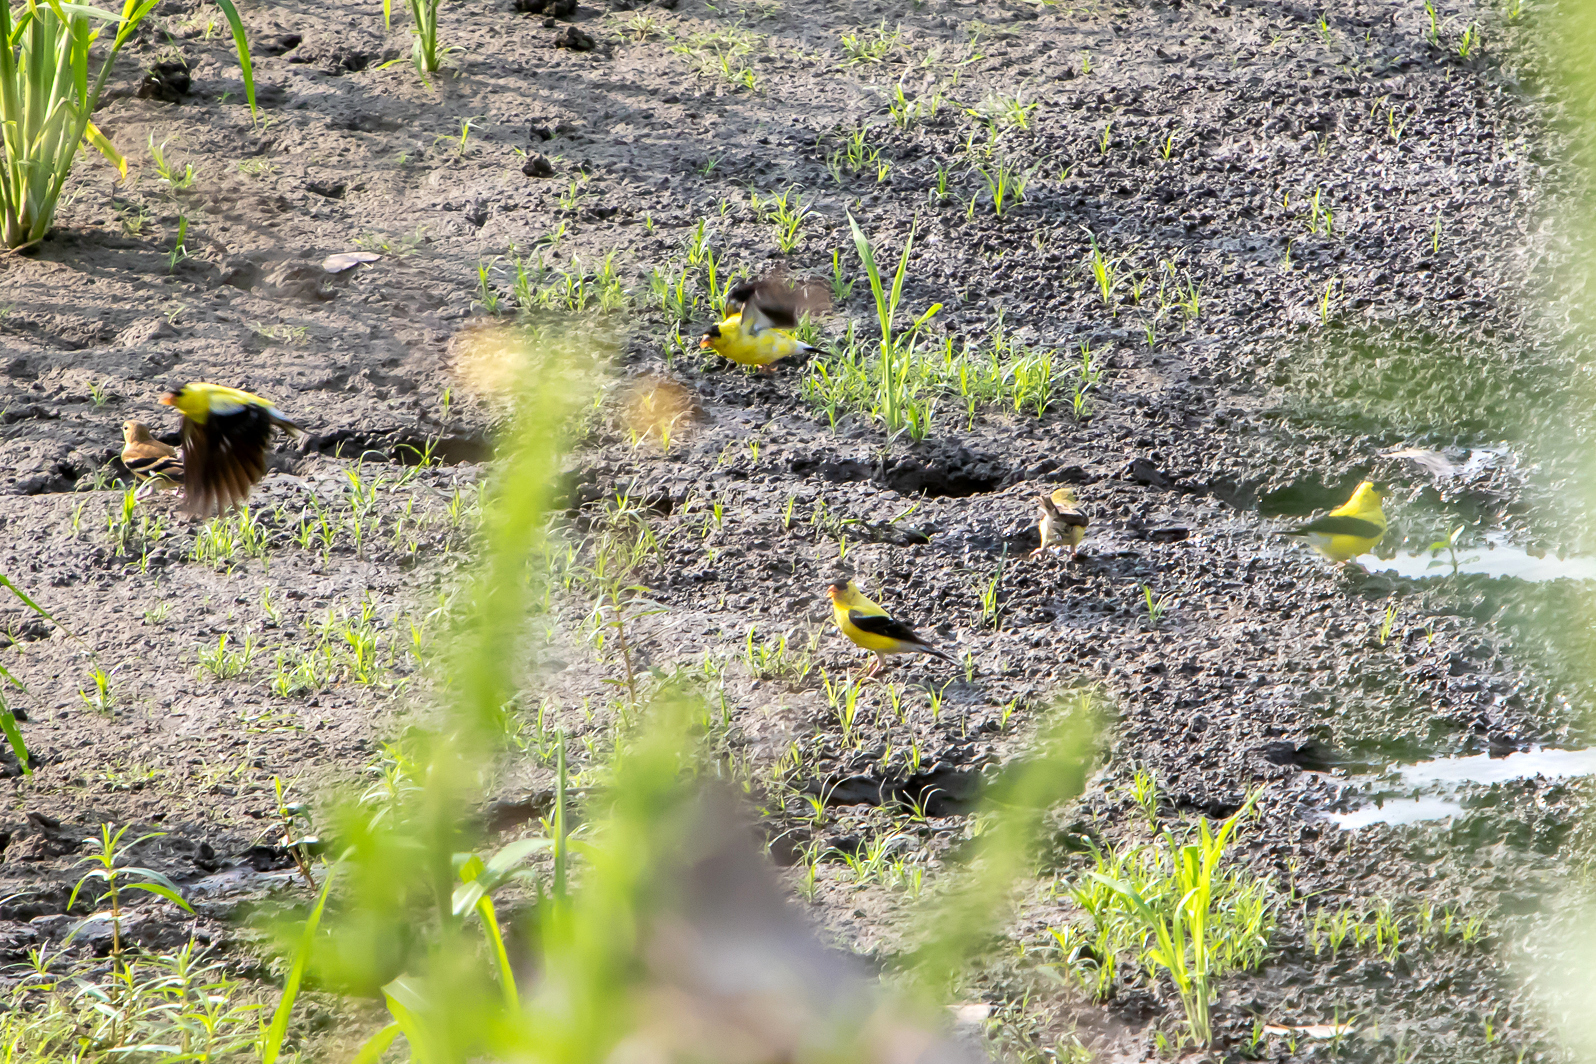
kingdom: Animalia
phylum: Chordata
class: Aves
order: Passeriformes
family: Fringillidae
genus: Spinus
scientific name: Spinus tristis
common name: American goldfinch
